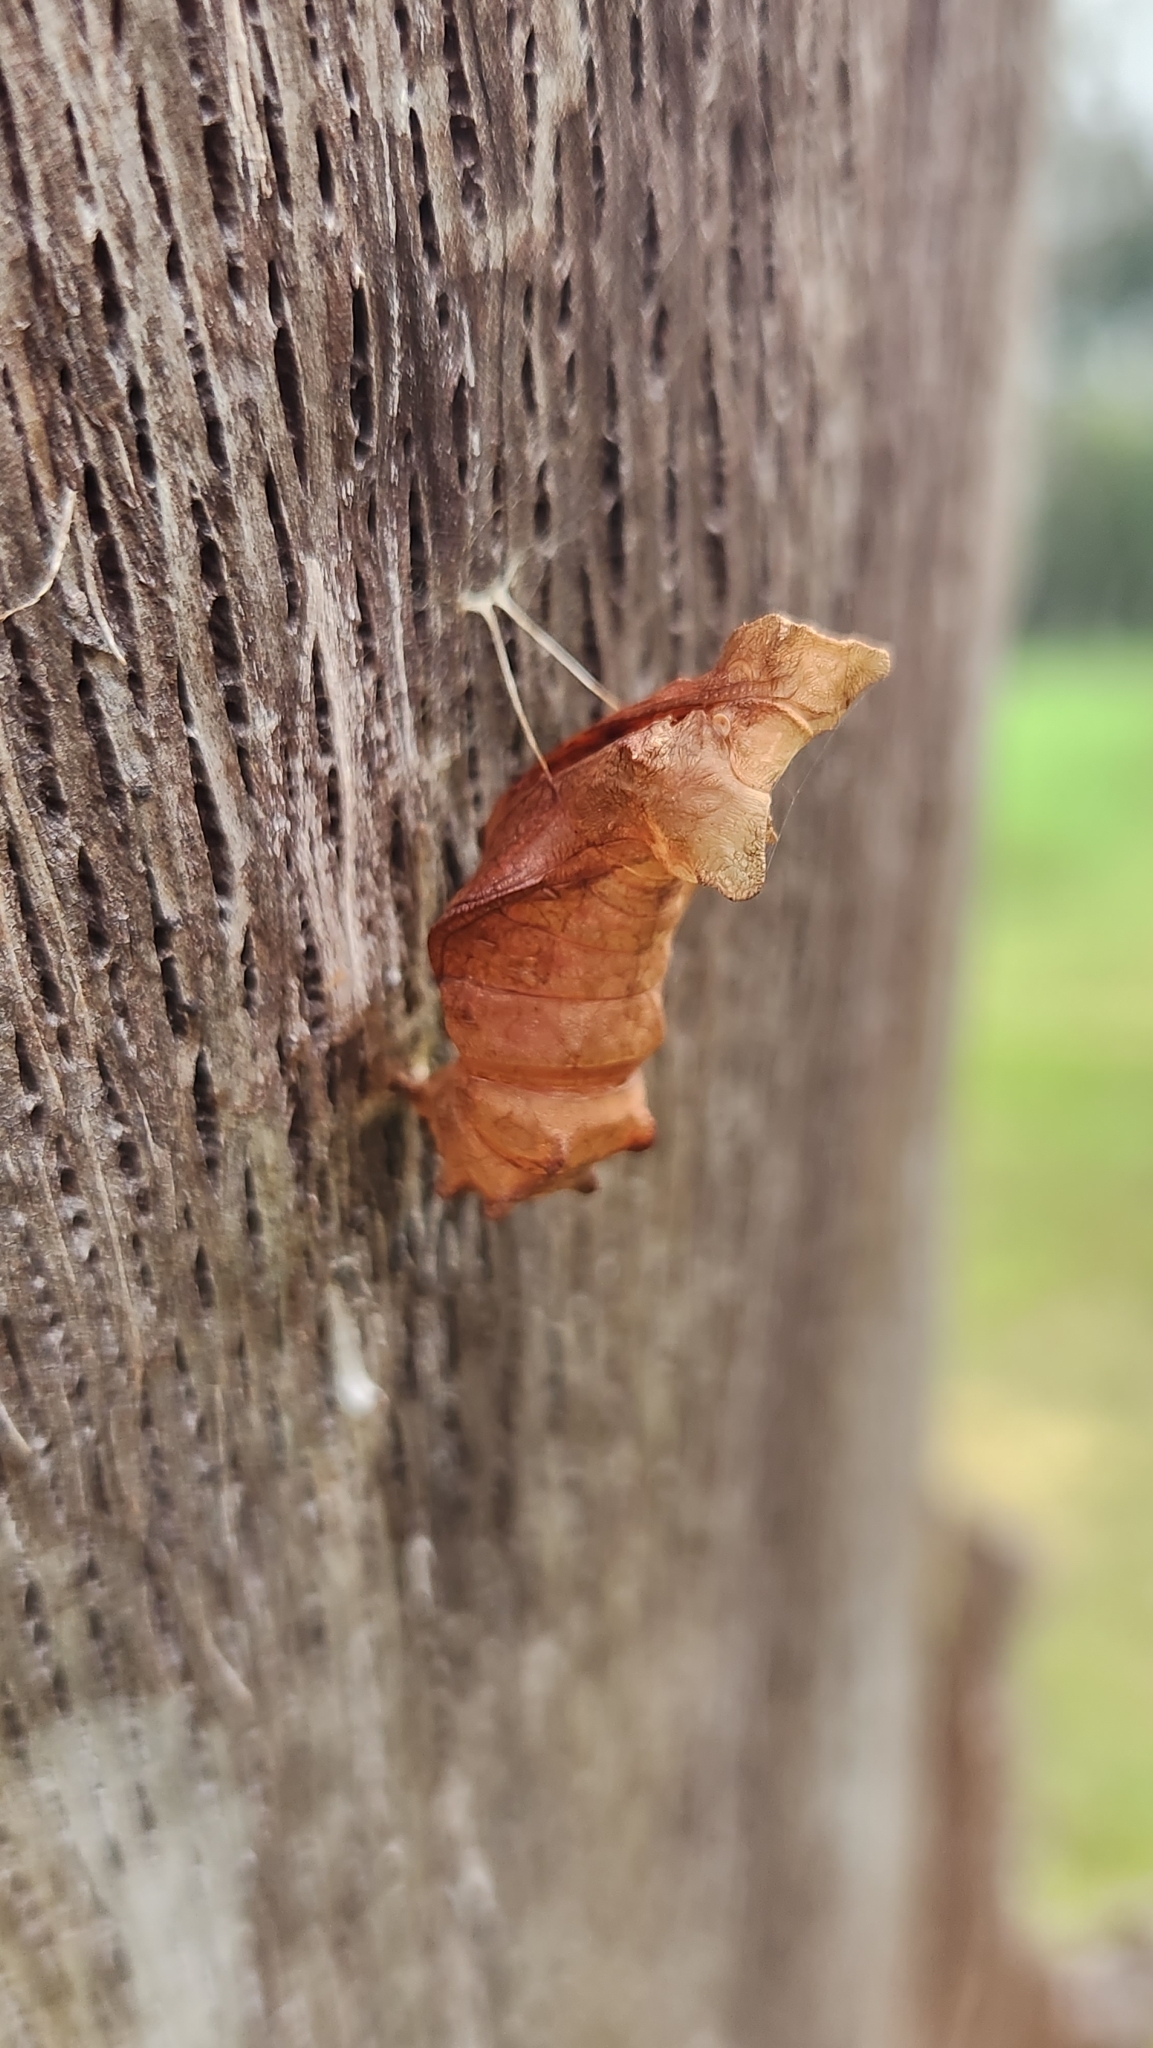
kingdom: Animalia
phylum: Arthropoda
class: Insecta
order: Lepidoptera
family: Papilionidae
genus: Battus
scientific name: Battus philenor
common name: Pipevine swallowtail
